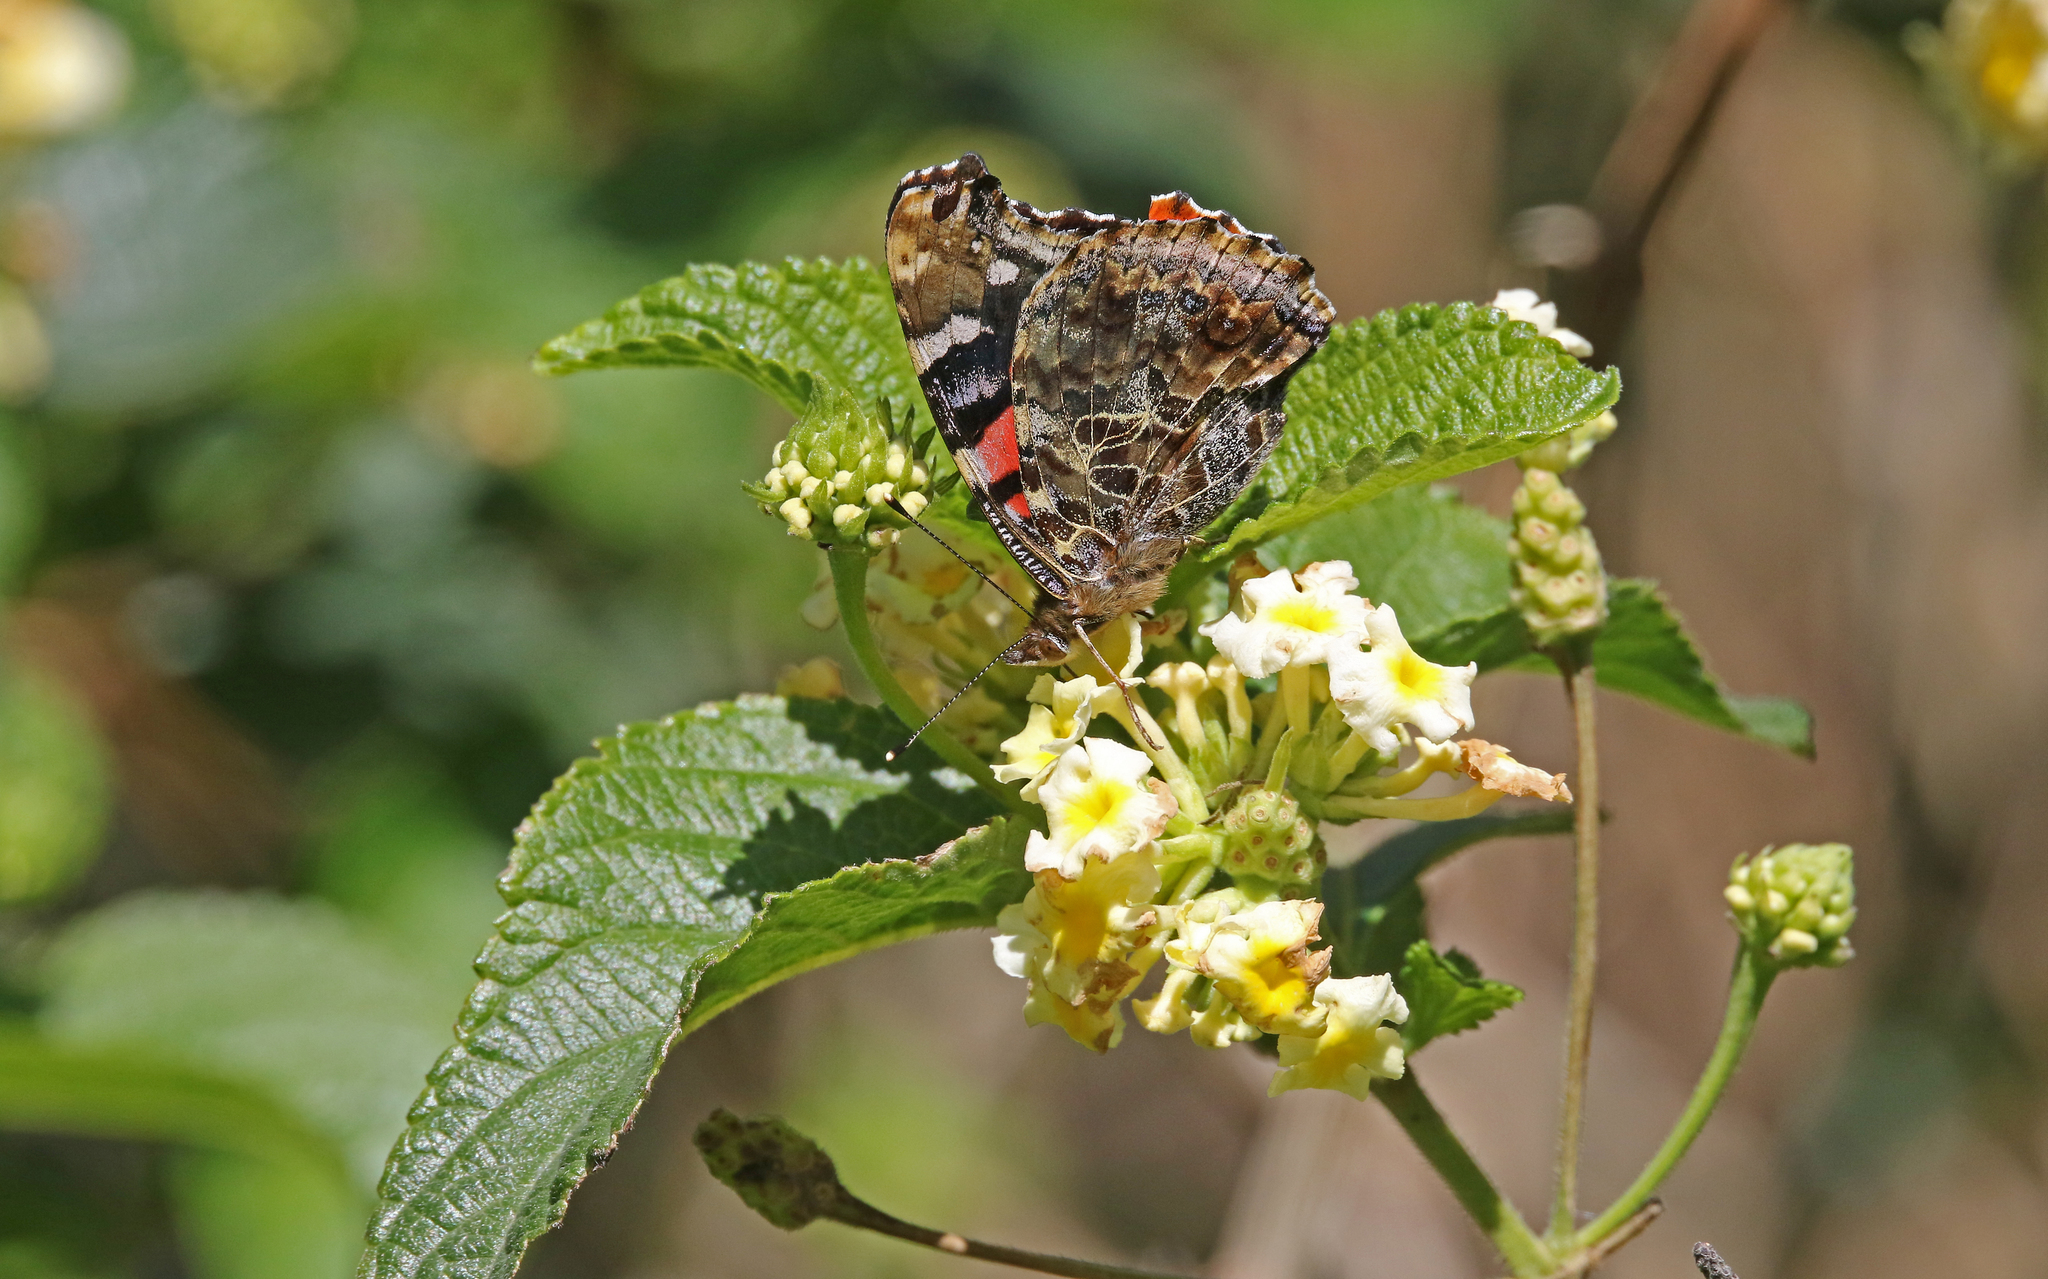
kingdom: Animalia
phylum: Arthropoda
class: Insecta
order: Lepidoptera
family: Nymphalidae
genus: Vanessa
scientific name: Vanessa vulcania
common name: Canary red admiral
